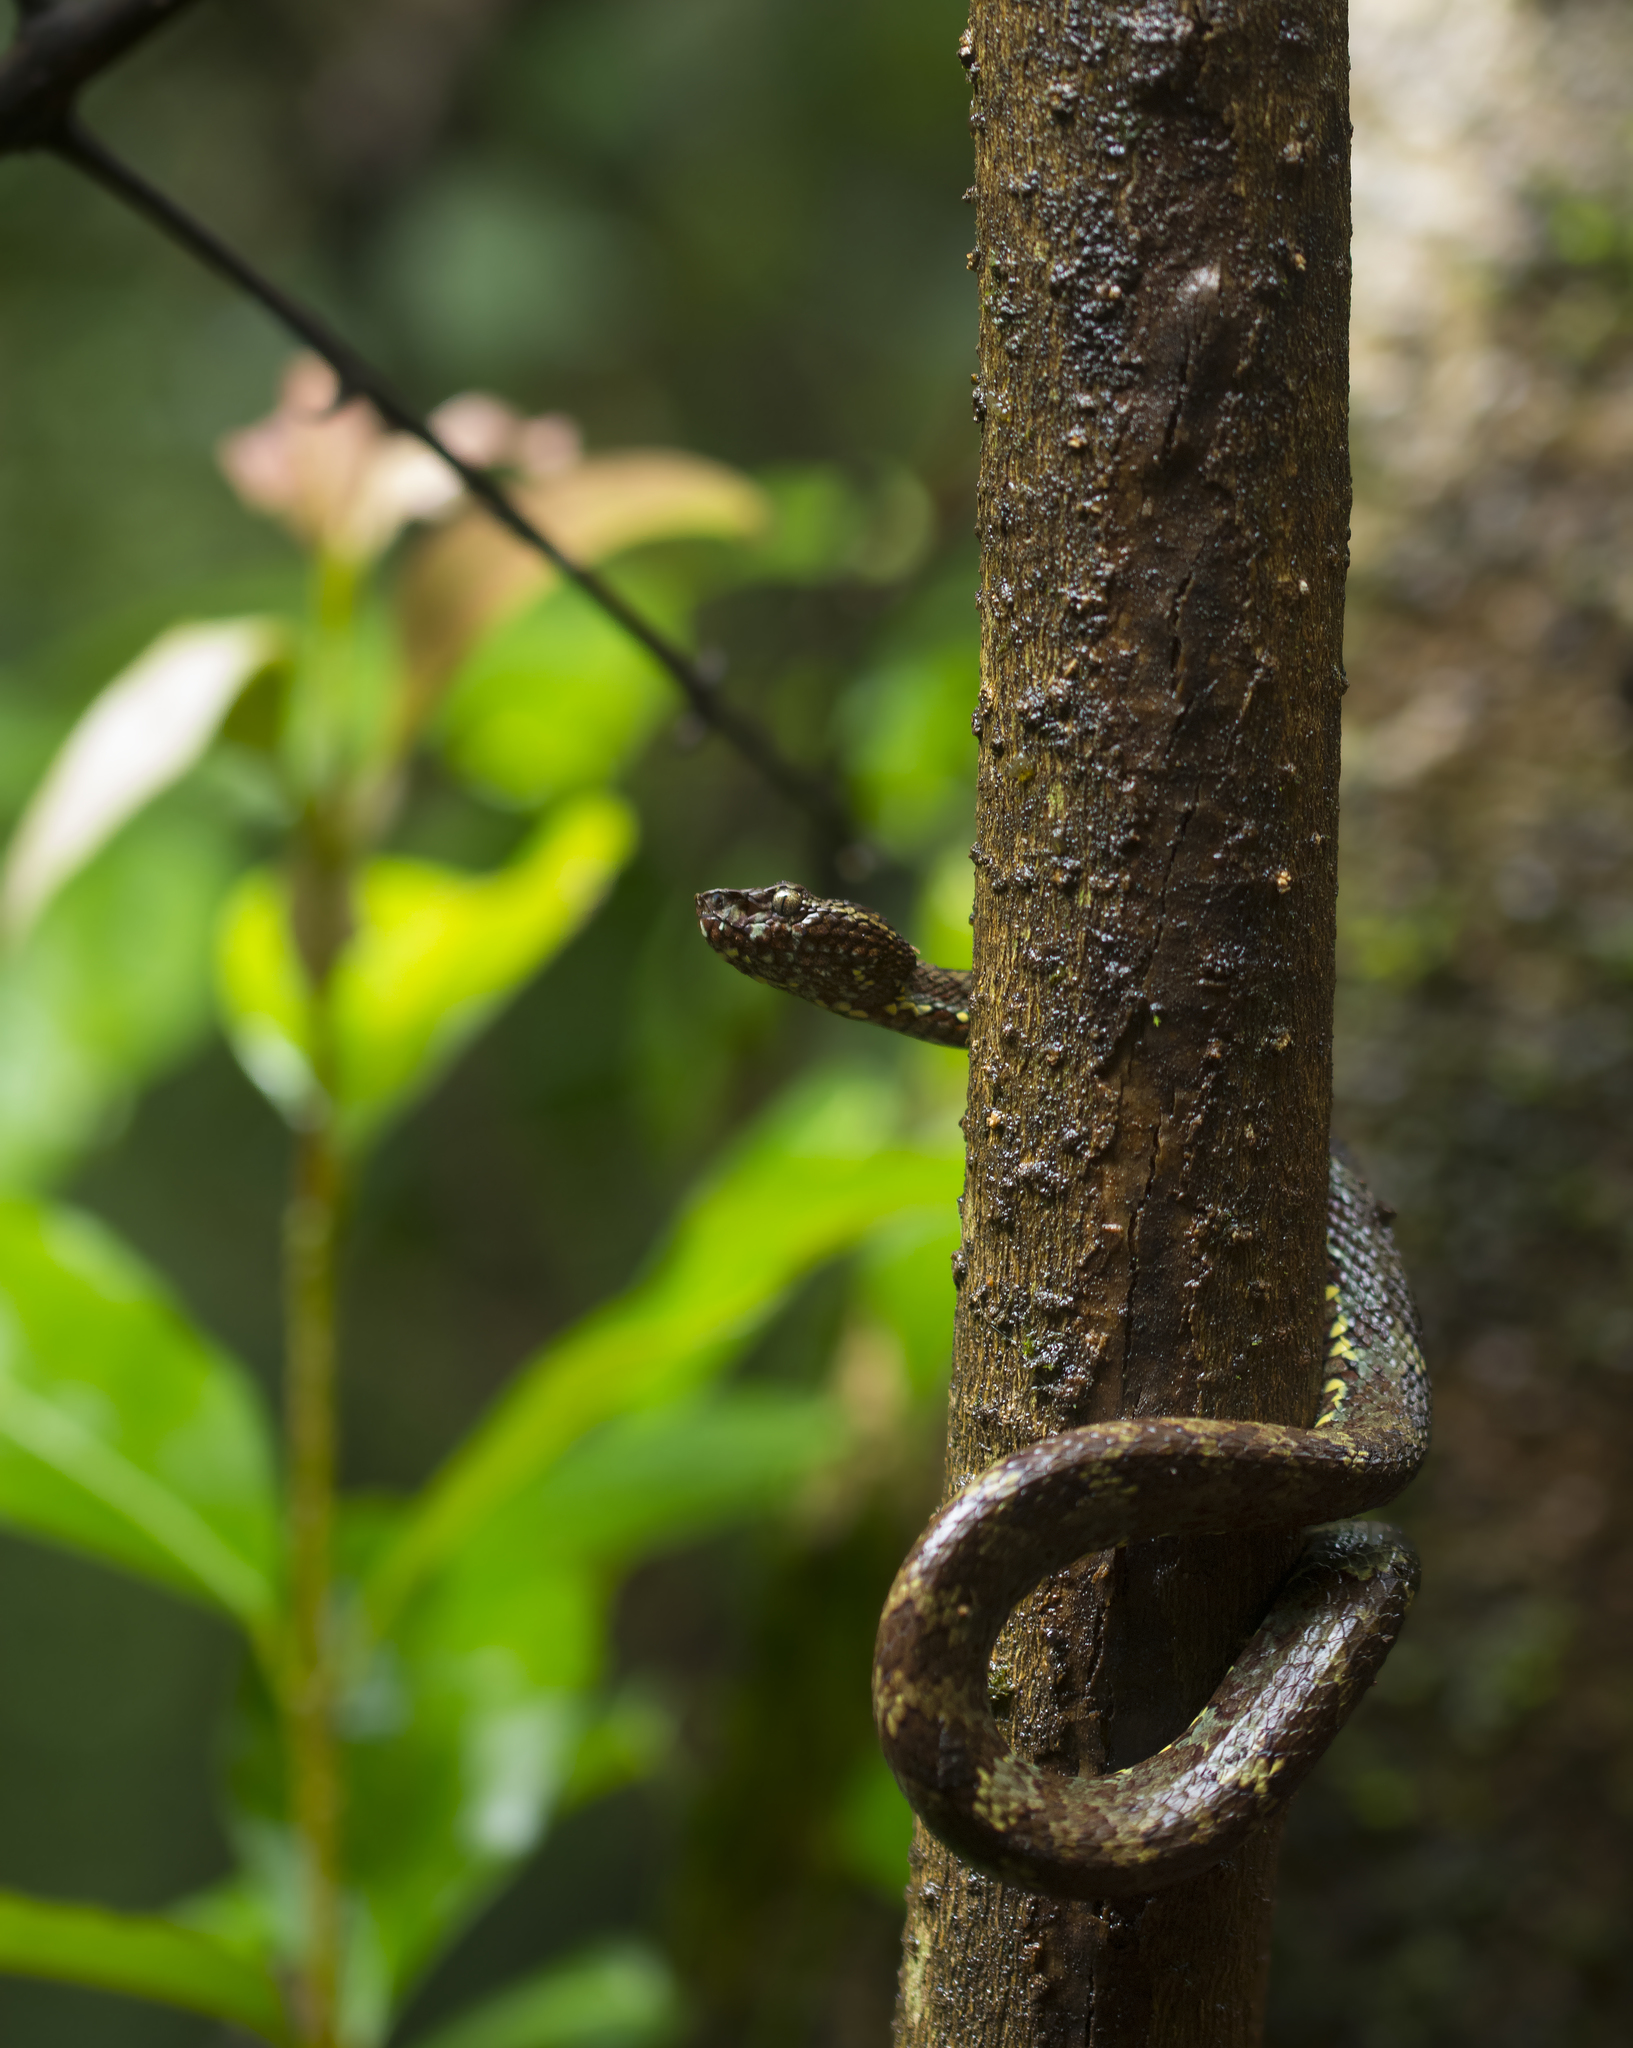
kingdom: Animalia
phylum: Chordata
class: Squamata
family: Viperidae
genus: Craspedocephalus
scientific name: Craspedocephalus malabaricus
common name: Malabarian pit viper
